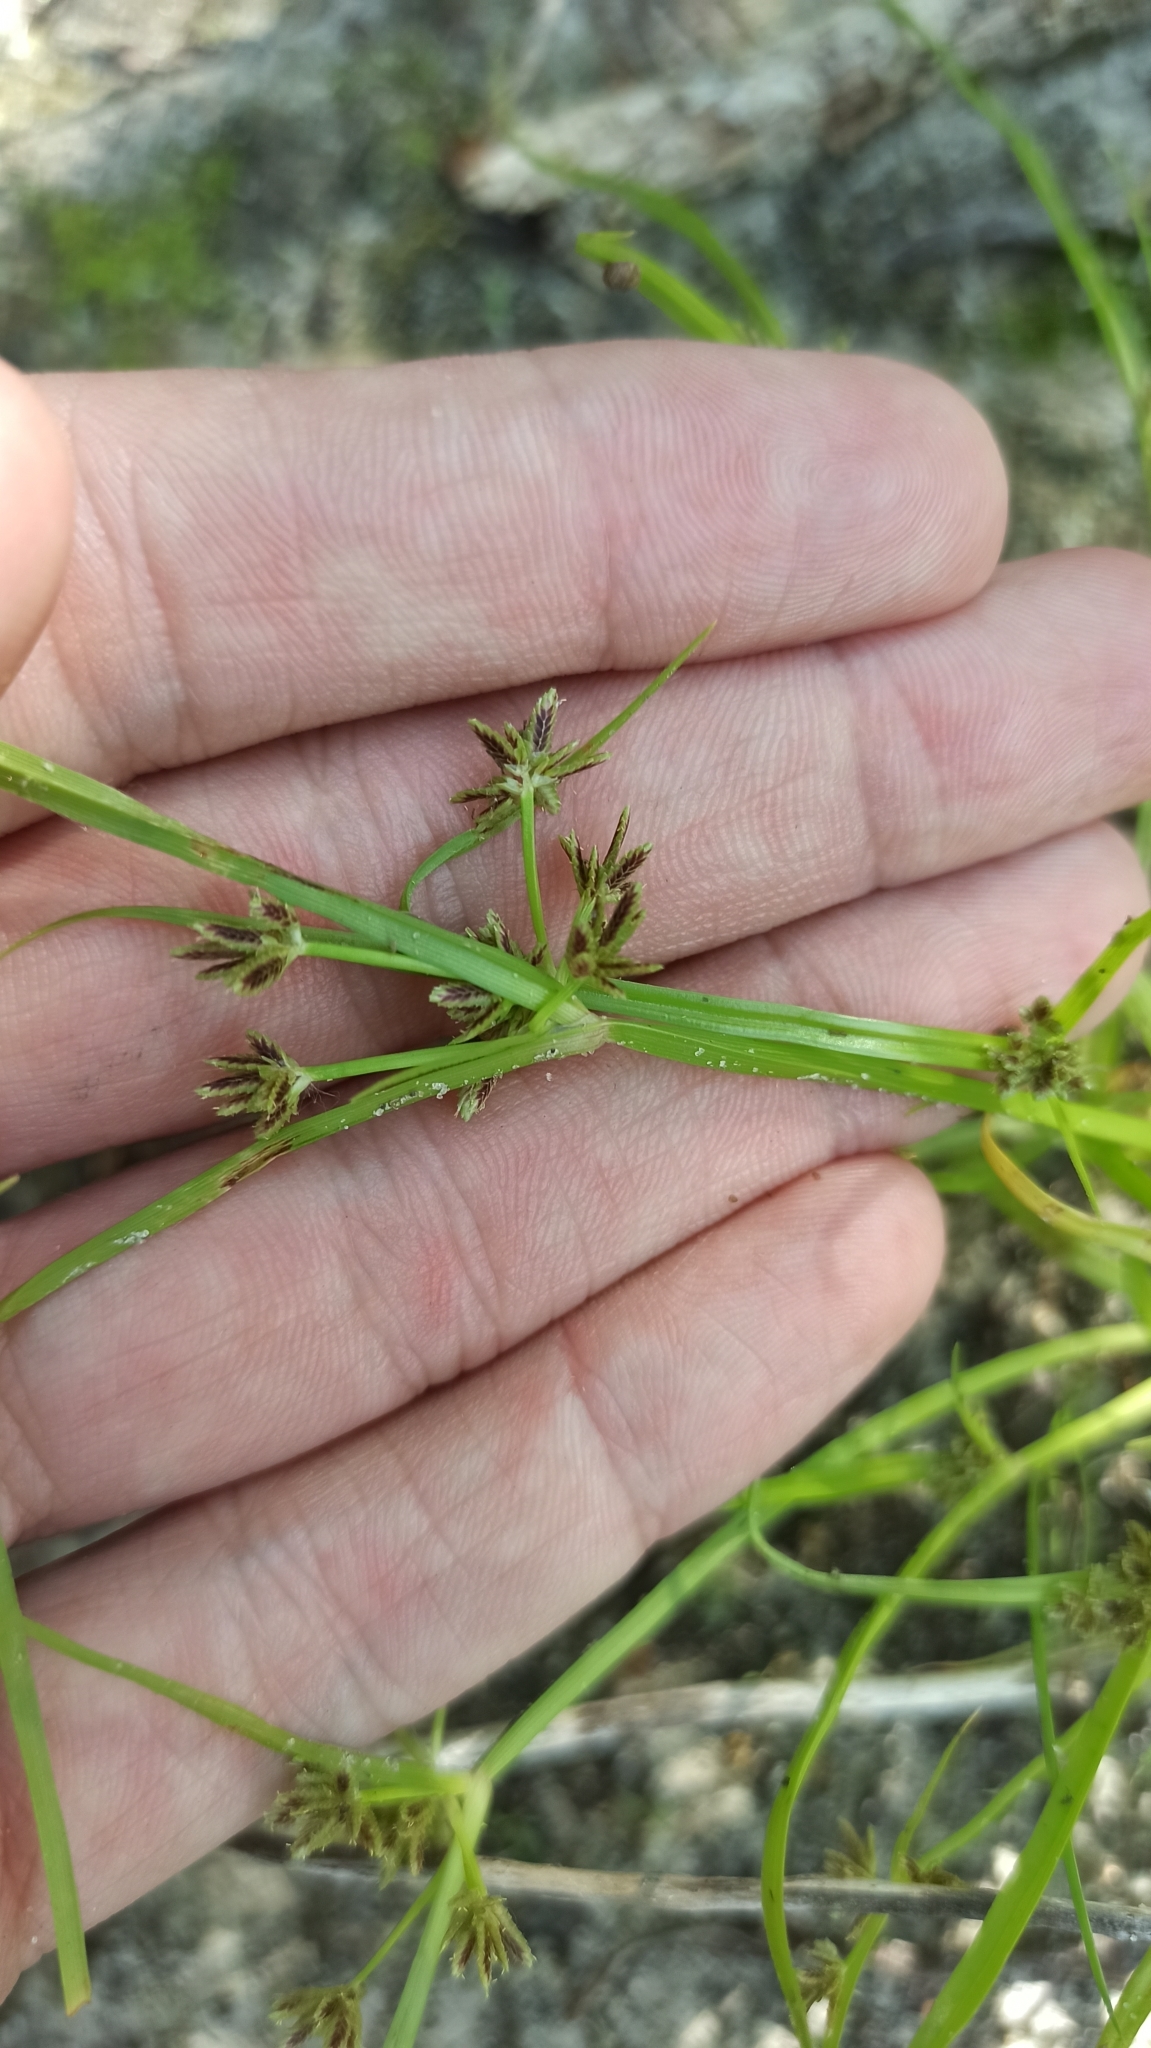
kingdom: Plantae
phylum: Tracheophyta
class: Liliopsida
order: Poales
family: Cyperaceae
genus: Cyperus
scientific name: Cyperus fuscus
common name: Brown galingale
